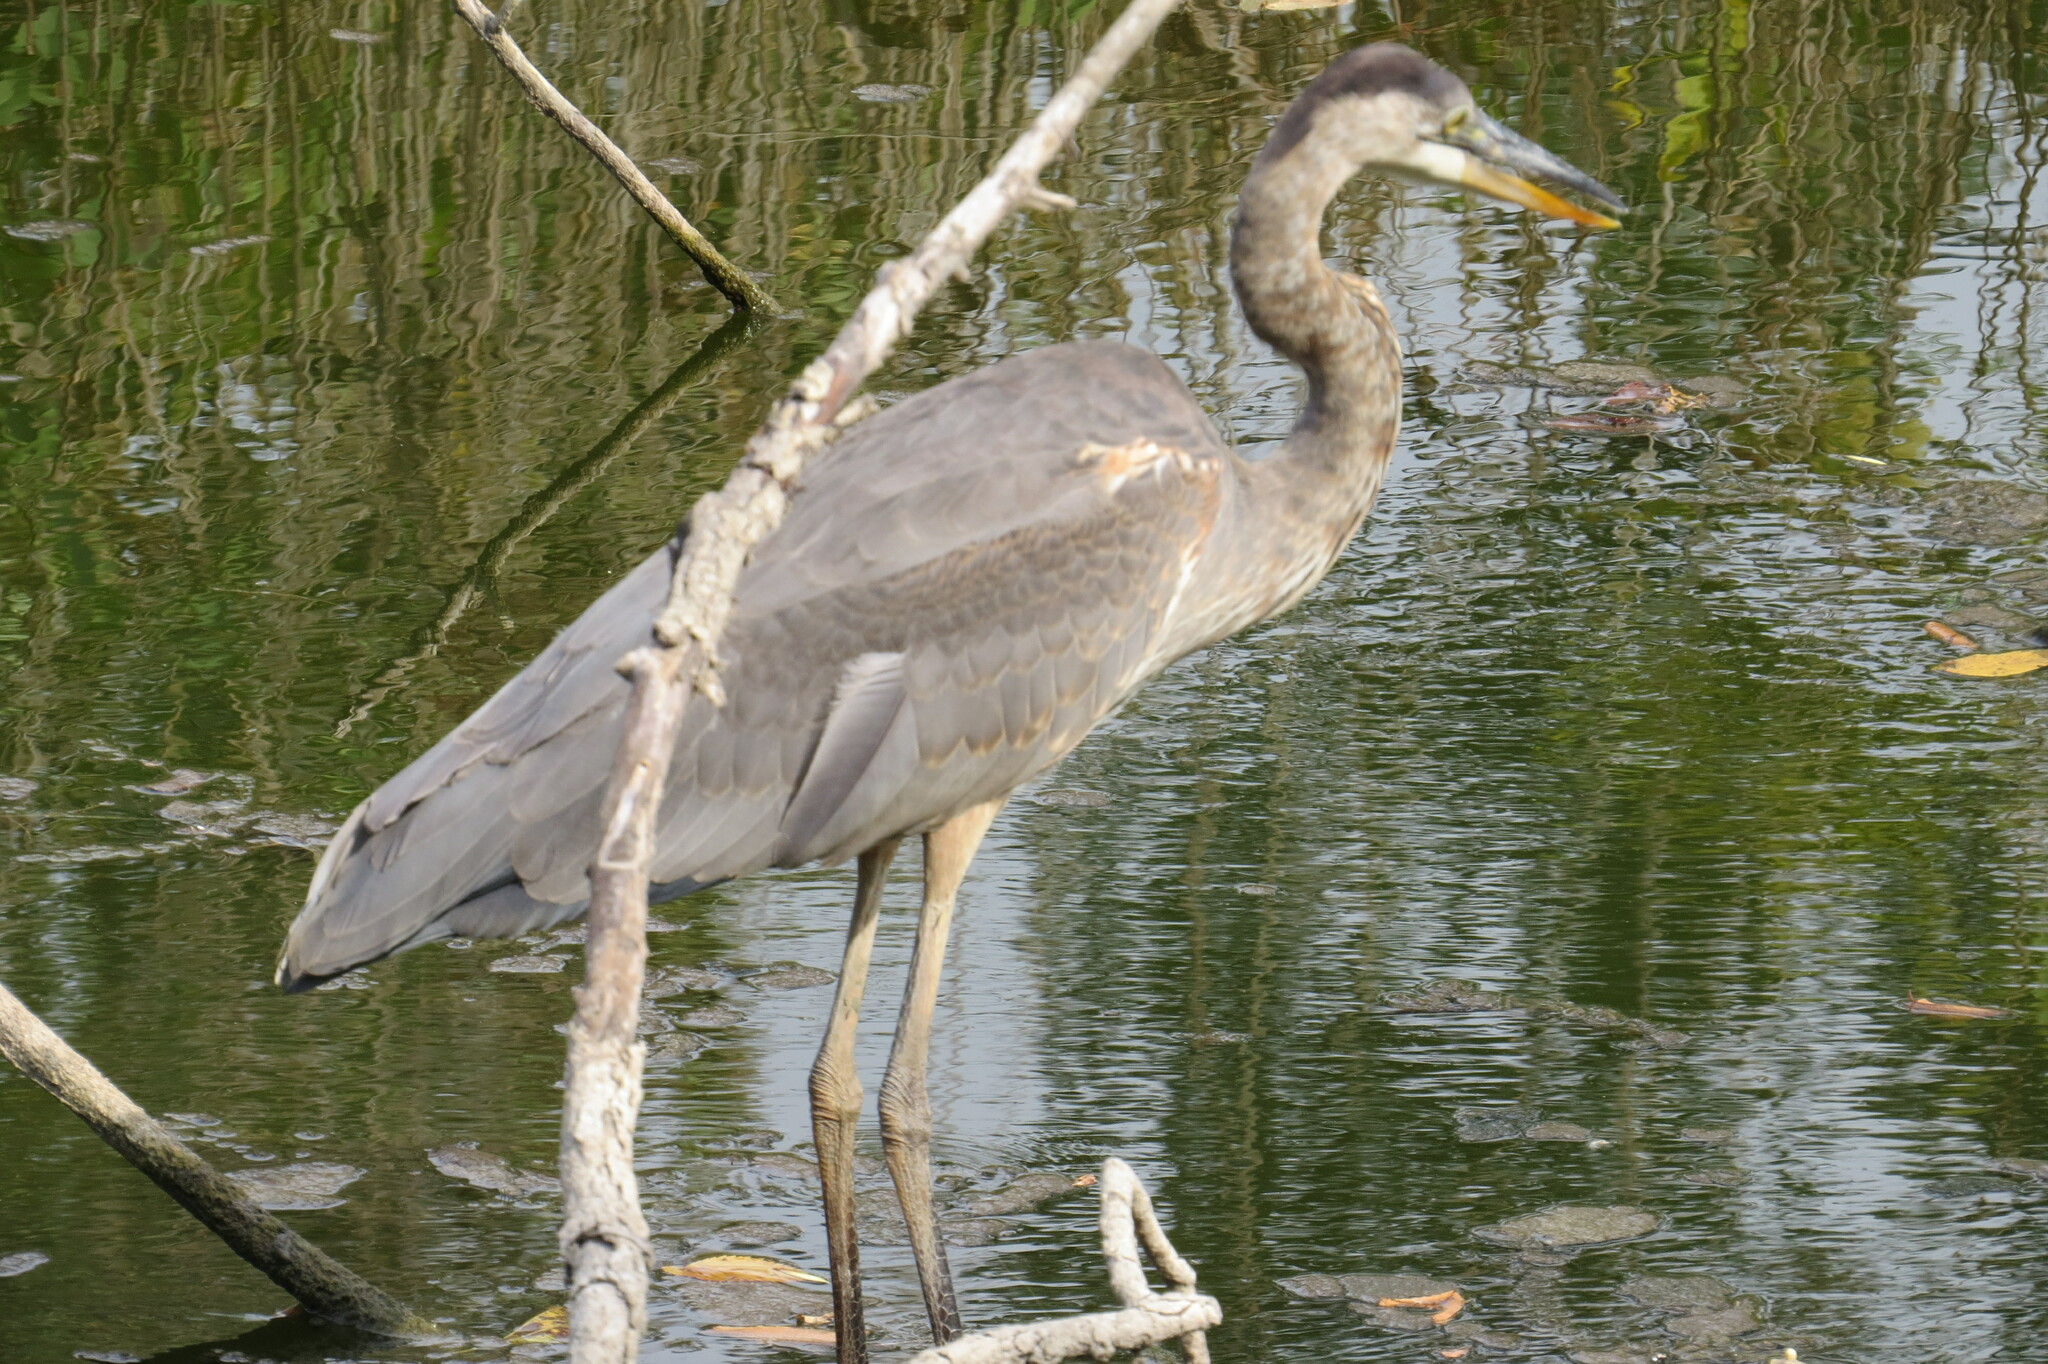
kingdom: Animalia
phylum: Chordata
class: Aves
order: Pelecaniformes
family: Ardeidae
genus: Ardea
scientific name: Ardea herodias
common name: Great blue heron
